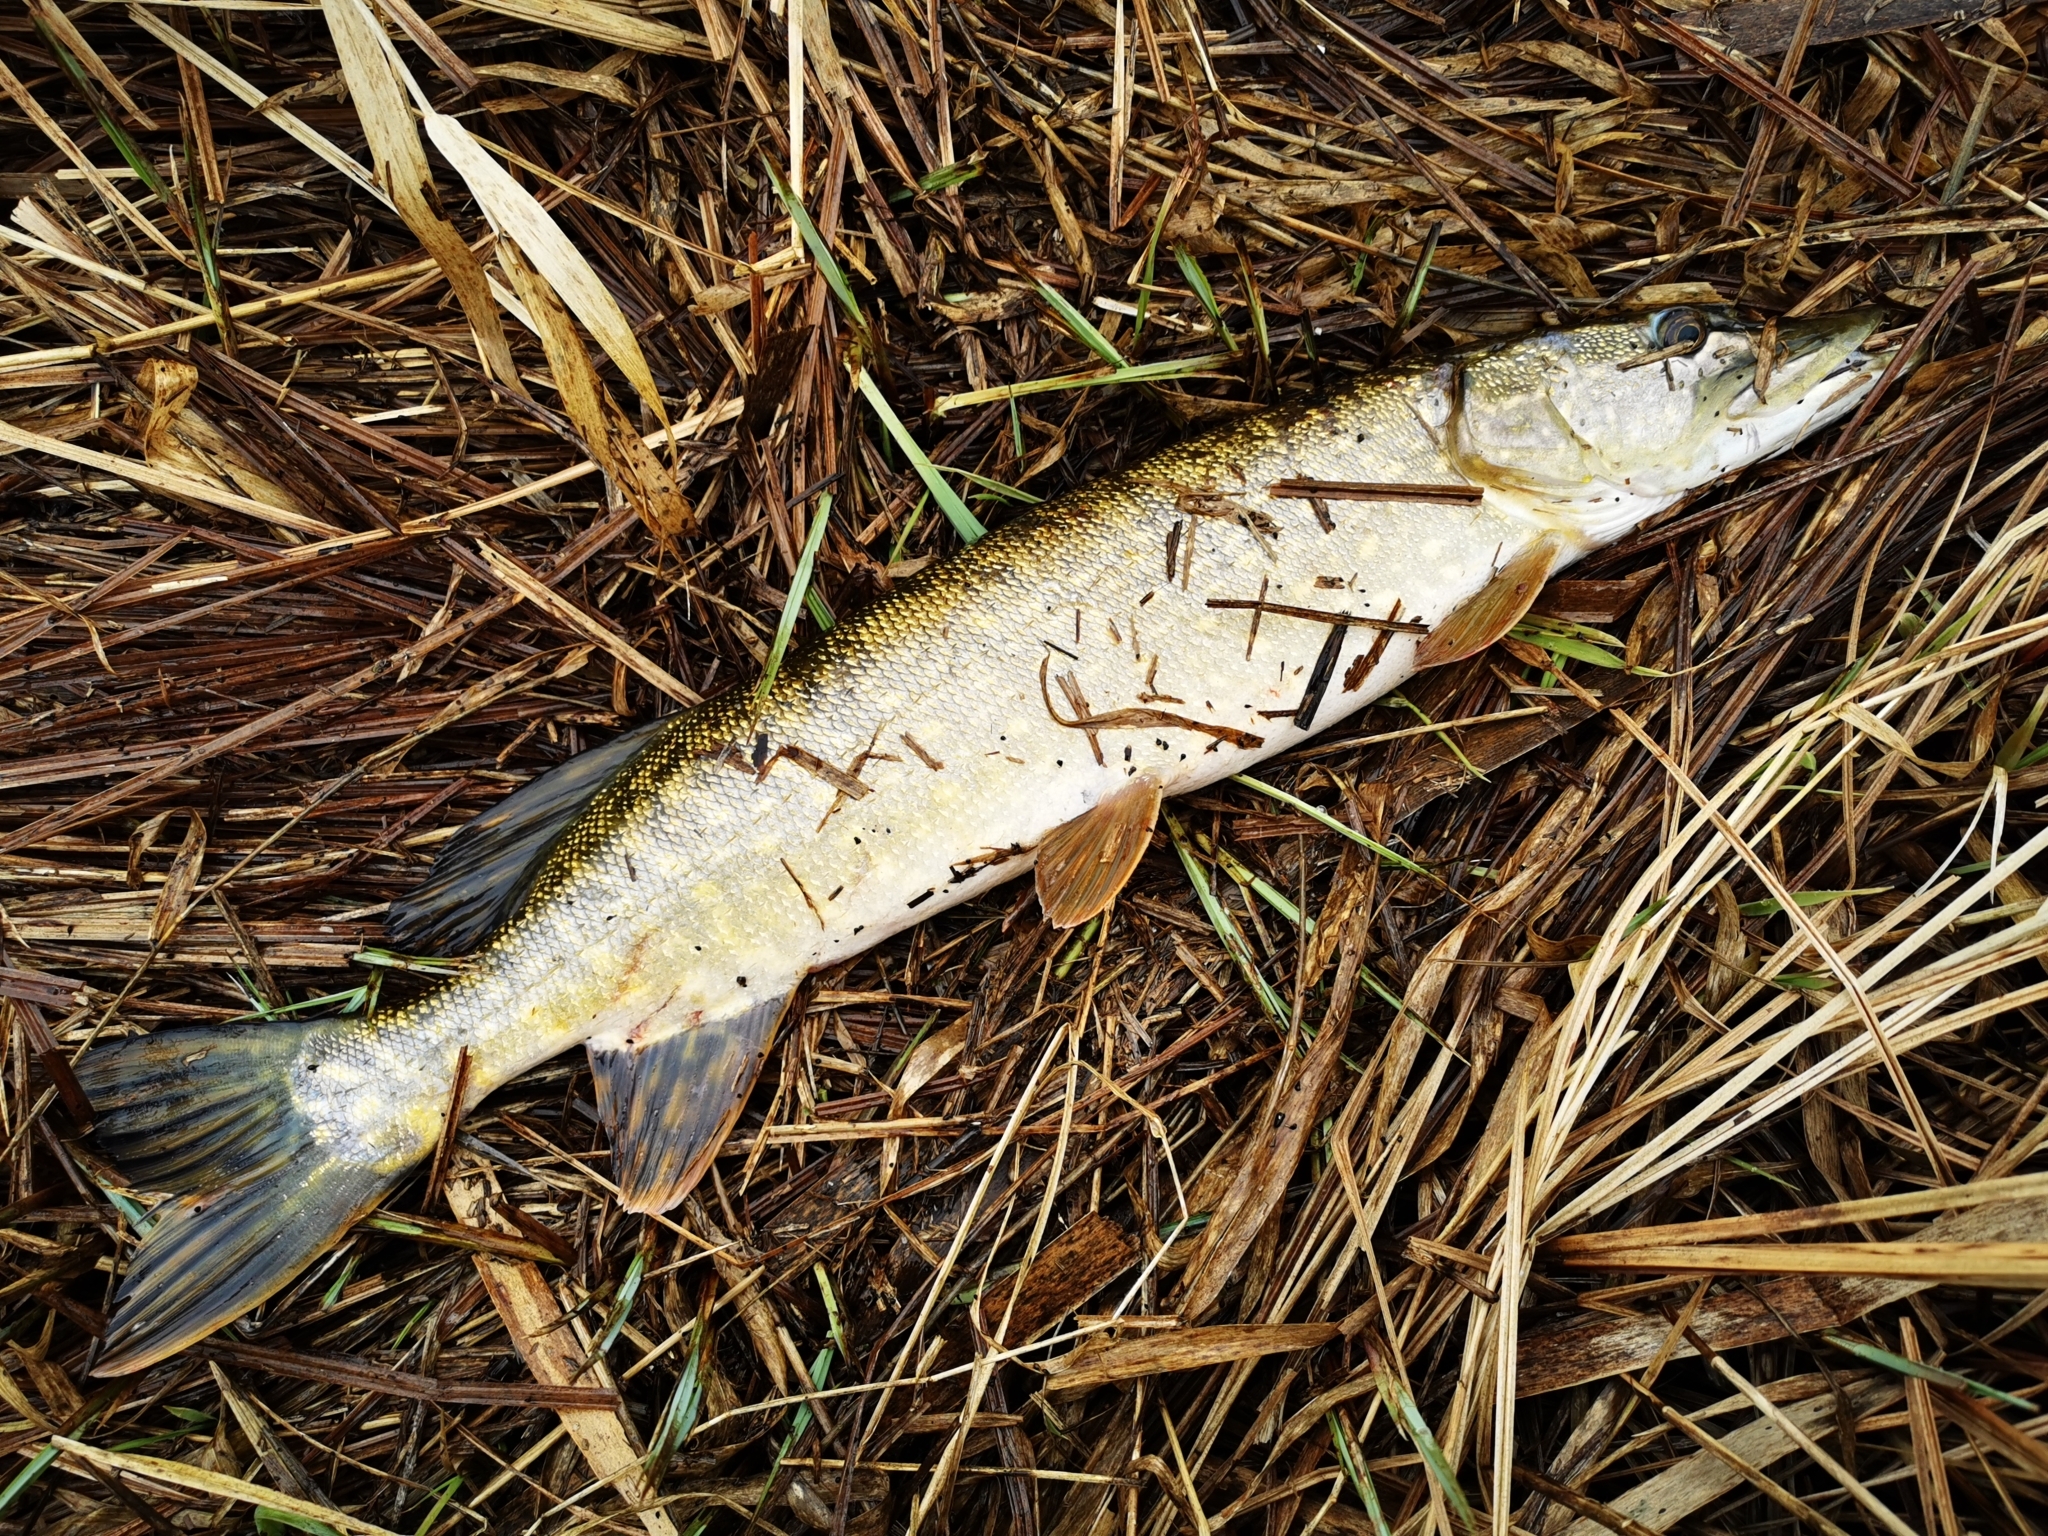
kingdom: Animalia
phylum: Chordata
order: Esociformes
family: Esocidae
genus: Esox
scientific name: Esox lucius
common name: Northern pike
